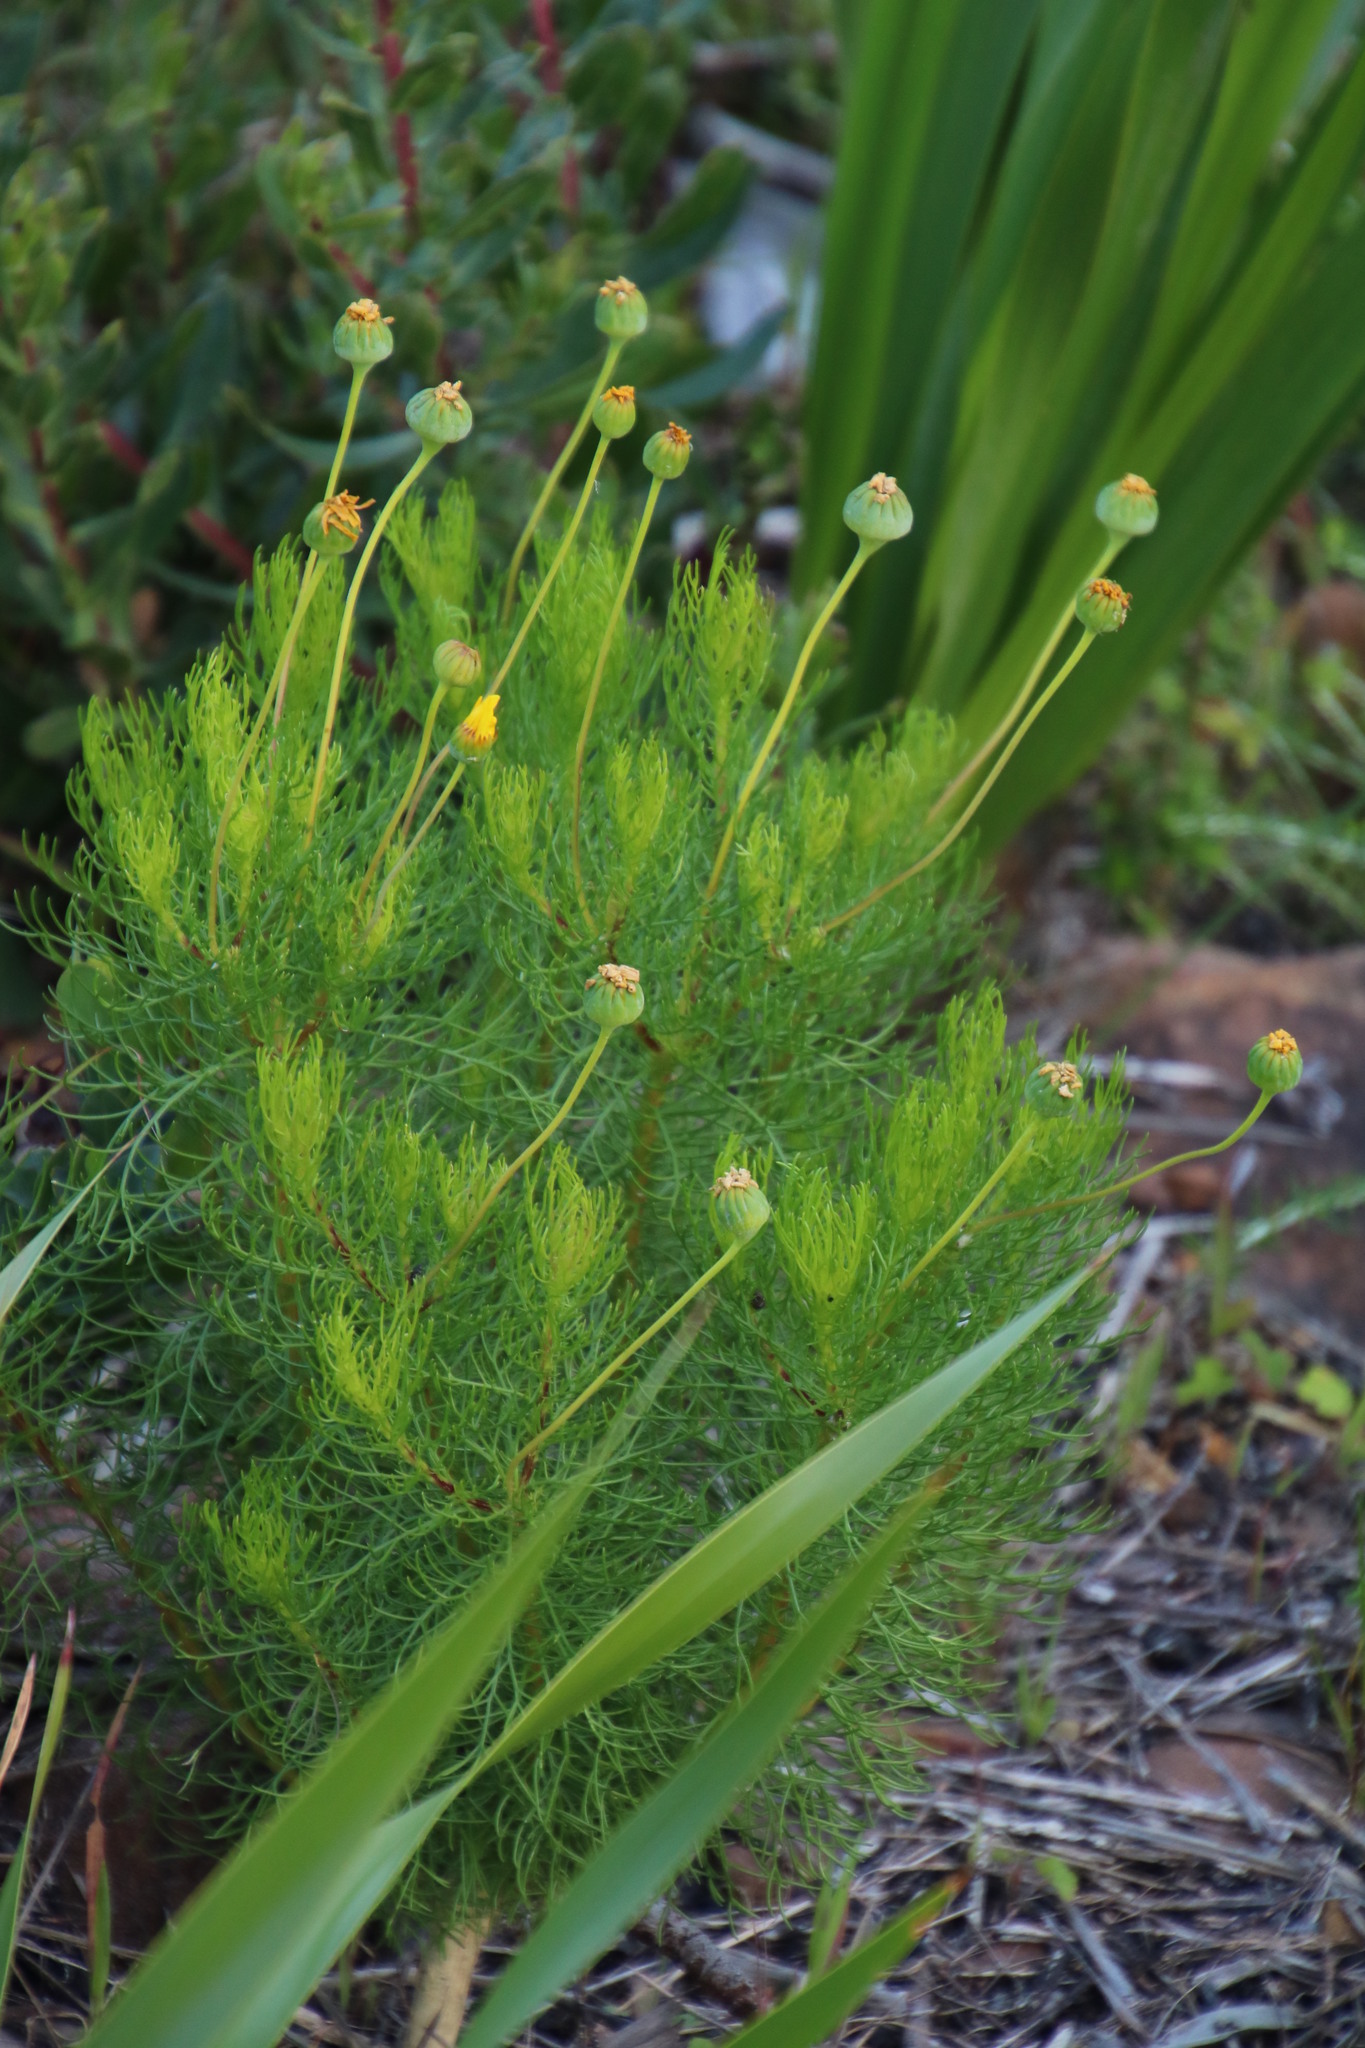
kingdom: Plantae
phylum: Tracheophyta
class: Magnoliopsida
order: Asterales
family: Asteraceae
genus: Euryops
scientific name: Euryops abrotanifolius
